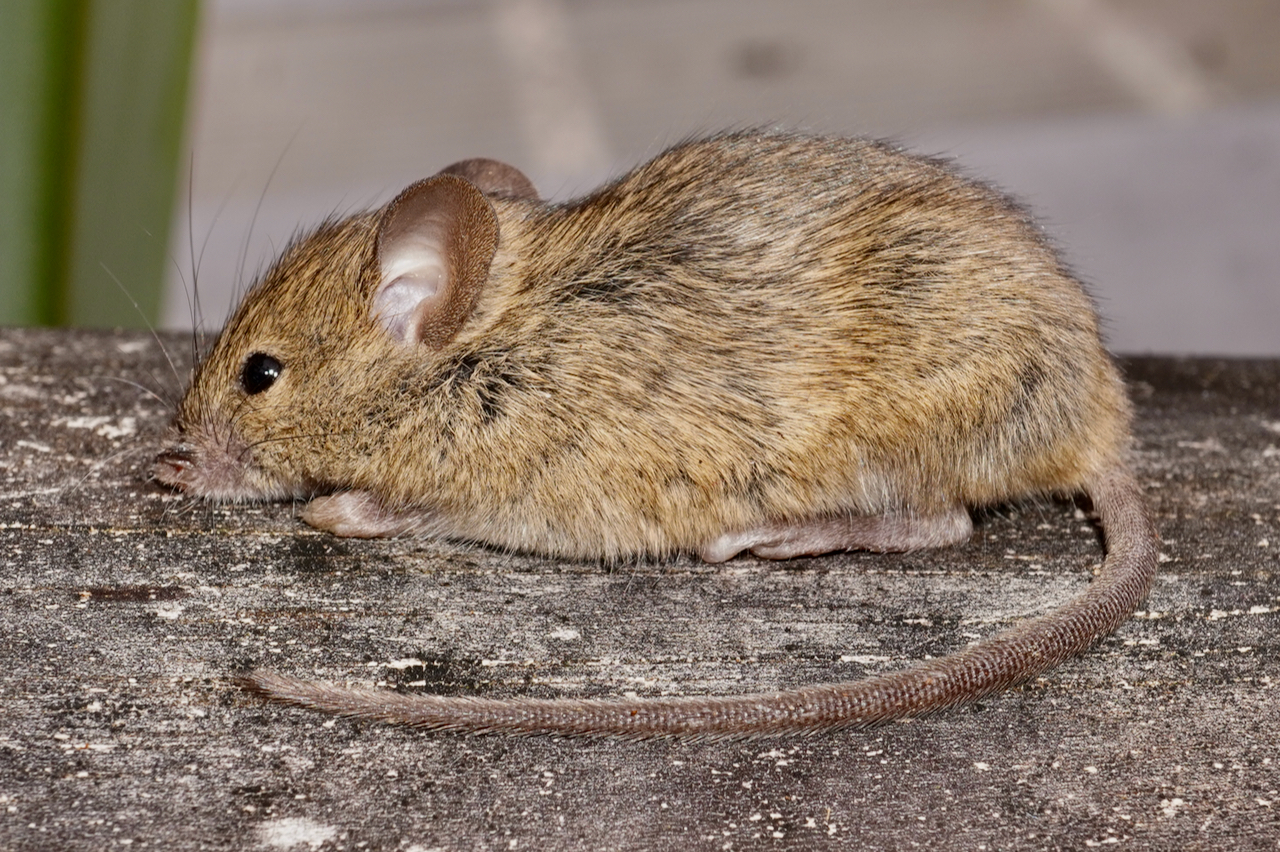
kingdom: Animalia
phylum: Chordata
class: Mammalia
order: Rodentia
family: Muridae
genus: Mus
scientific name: Mus musculus
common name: House mouse
